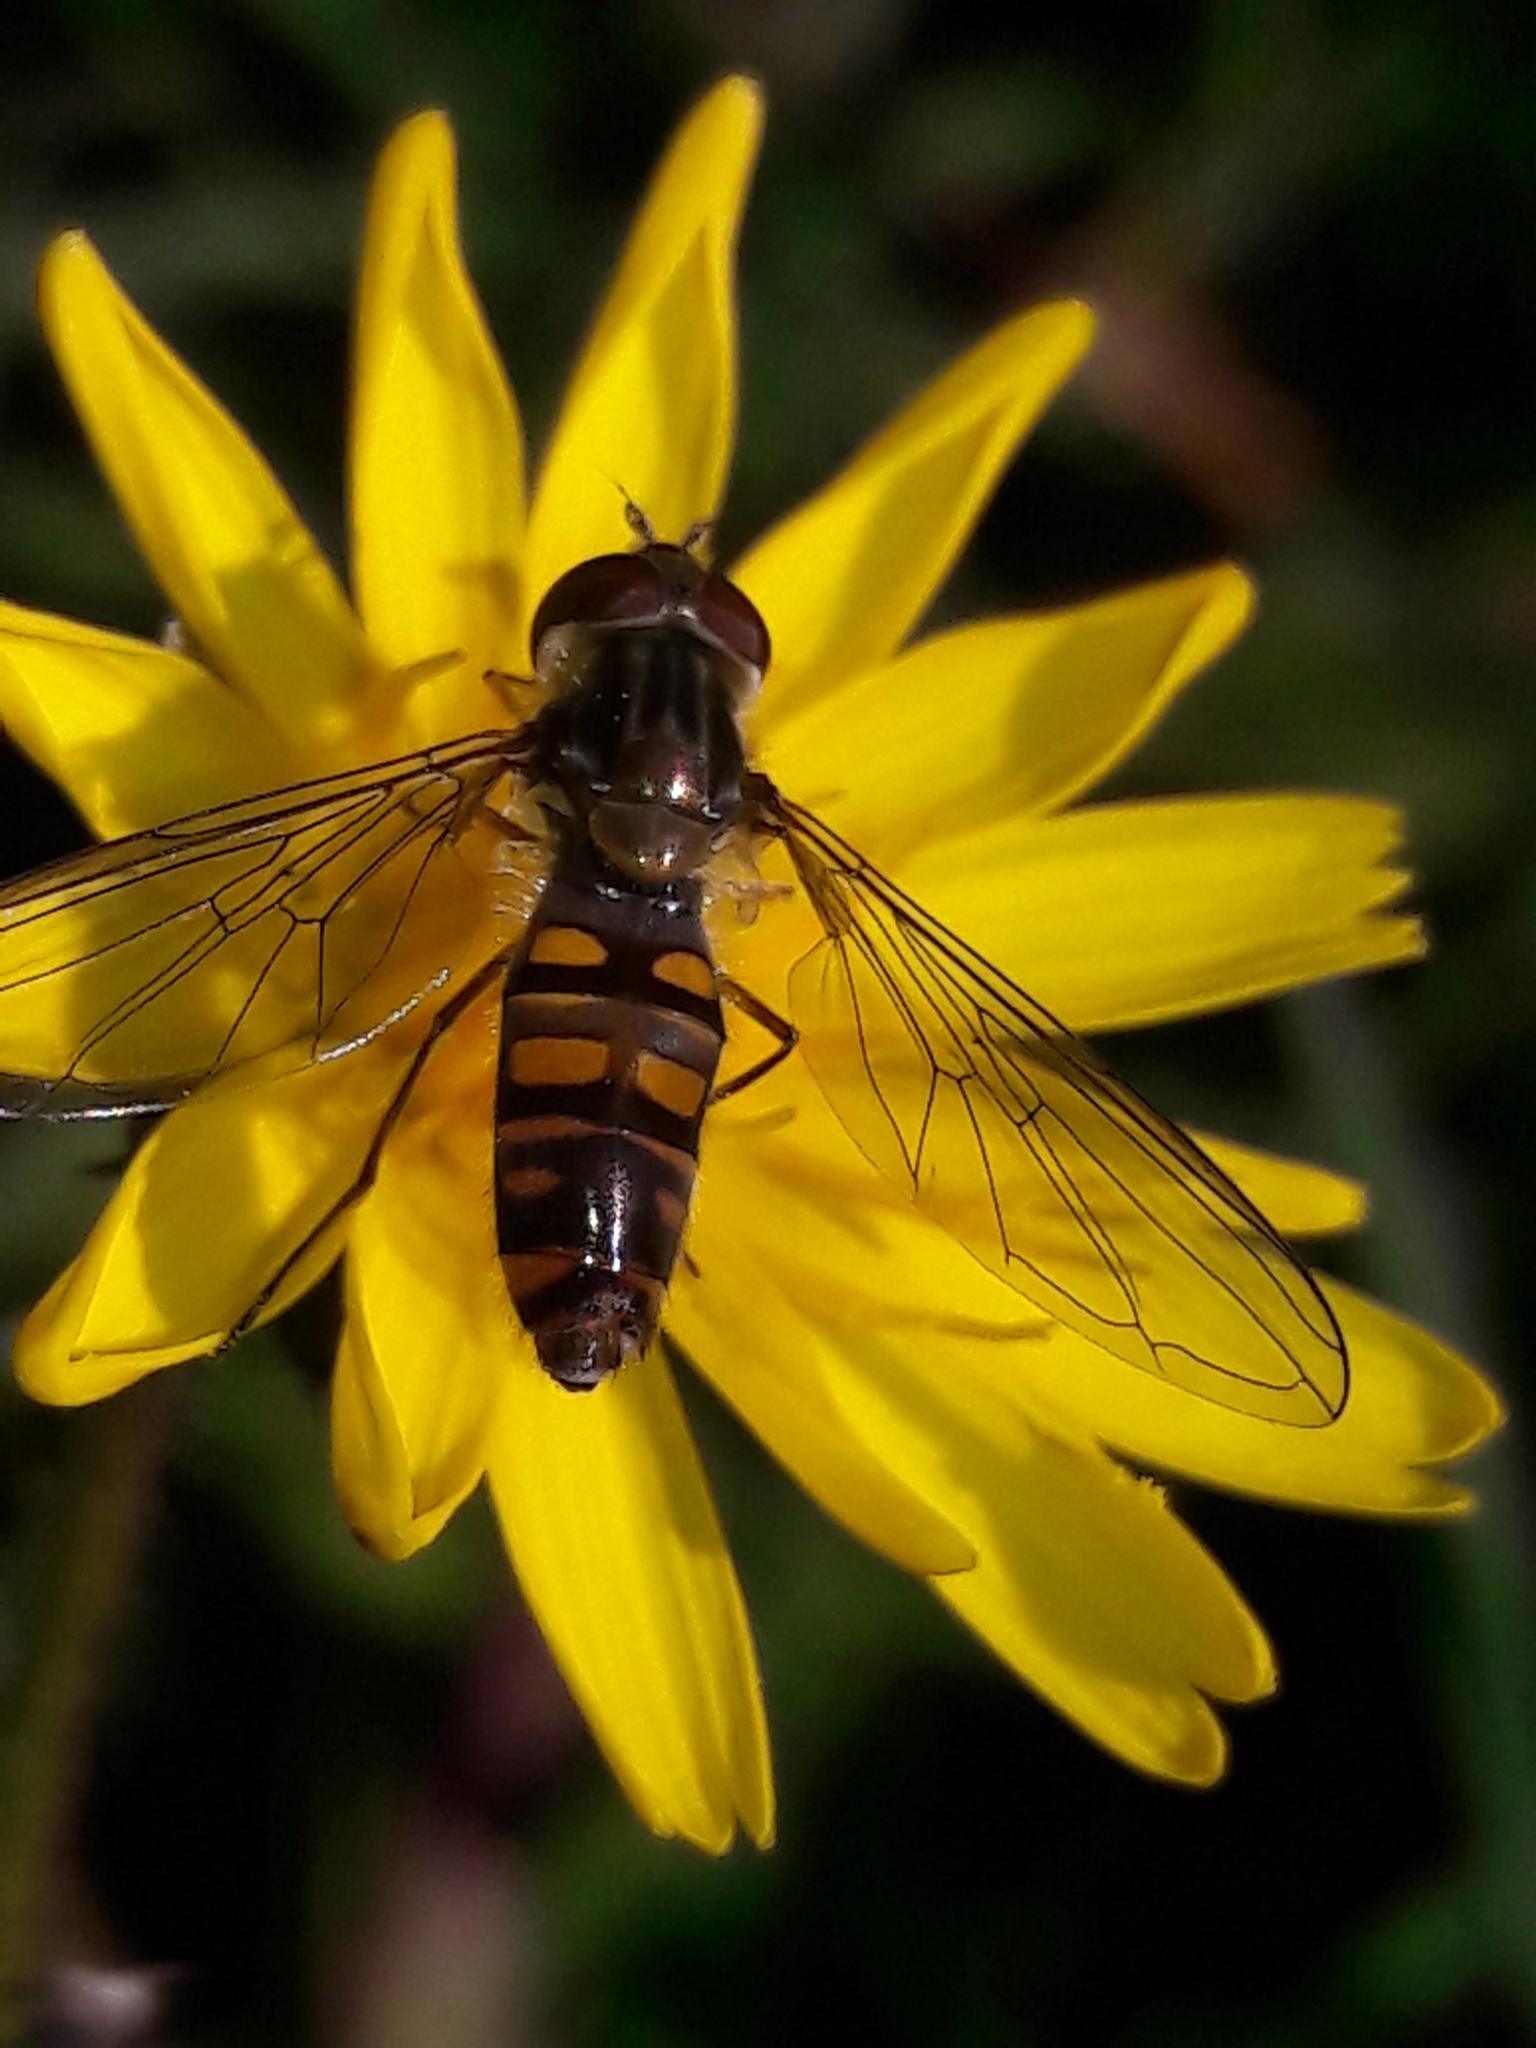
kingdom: Animalia
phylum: Arthropoda
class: Insecta
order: Diptera
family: Syrphidae
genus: Episyrphus
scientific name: Episyrphus balteatus
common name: Marmalade hoverfly
